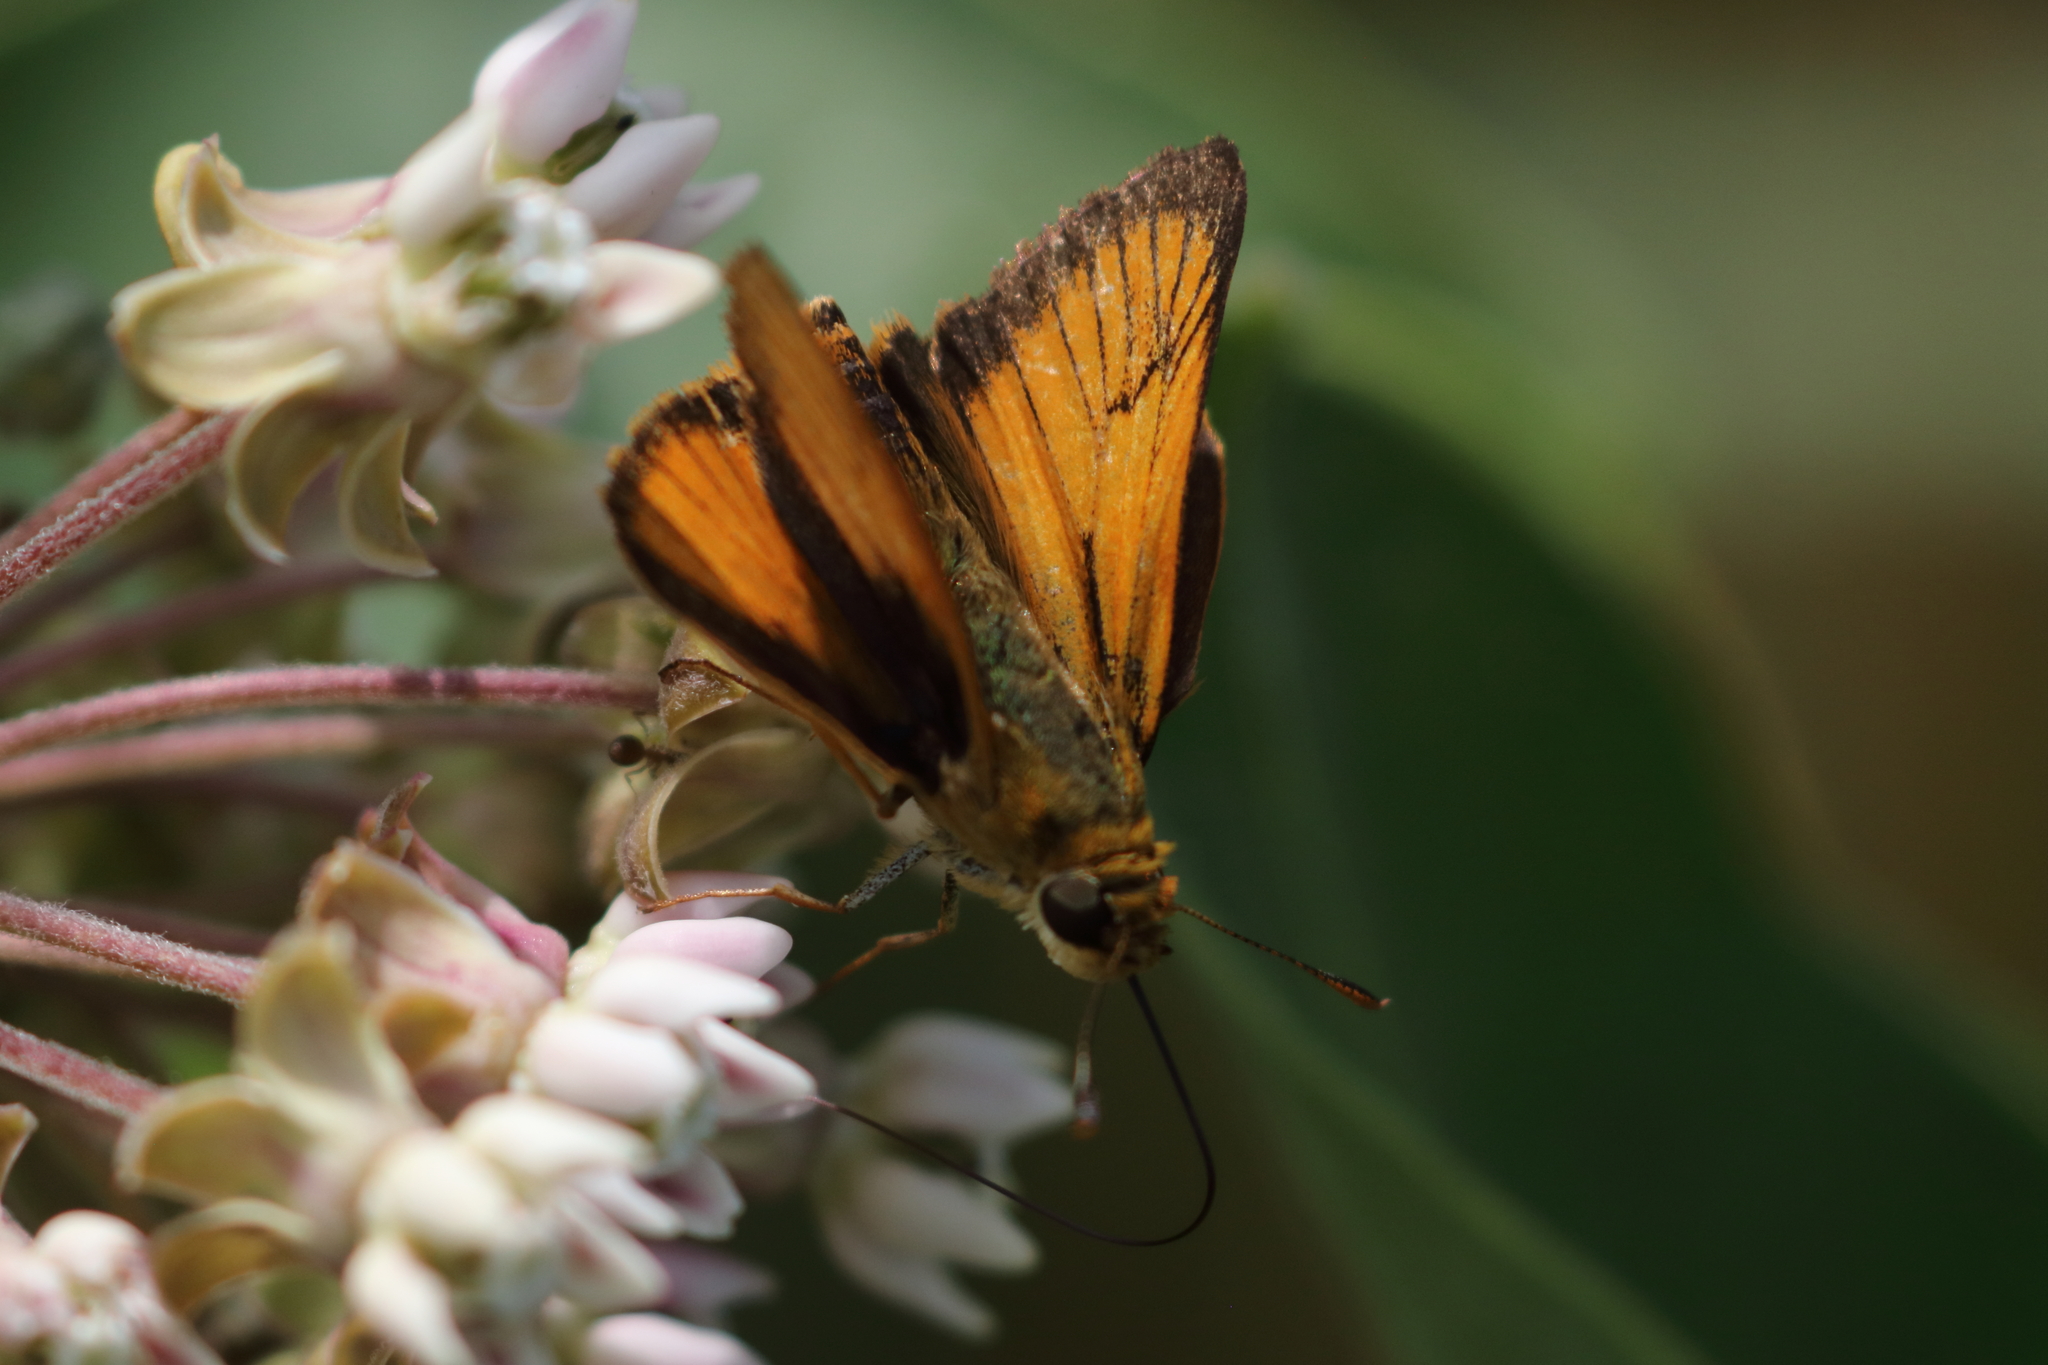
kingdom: Animalia
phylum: Arthropoda
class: Insecta
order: Lepidoptera
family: Hesperiidae
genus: Atrytone
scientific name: Atrytone delaware
